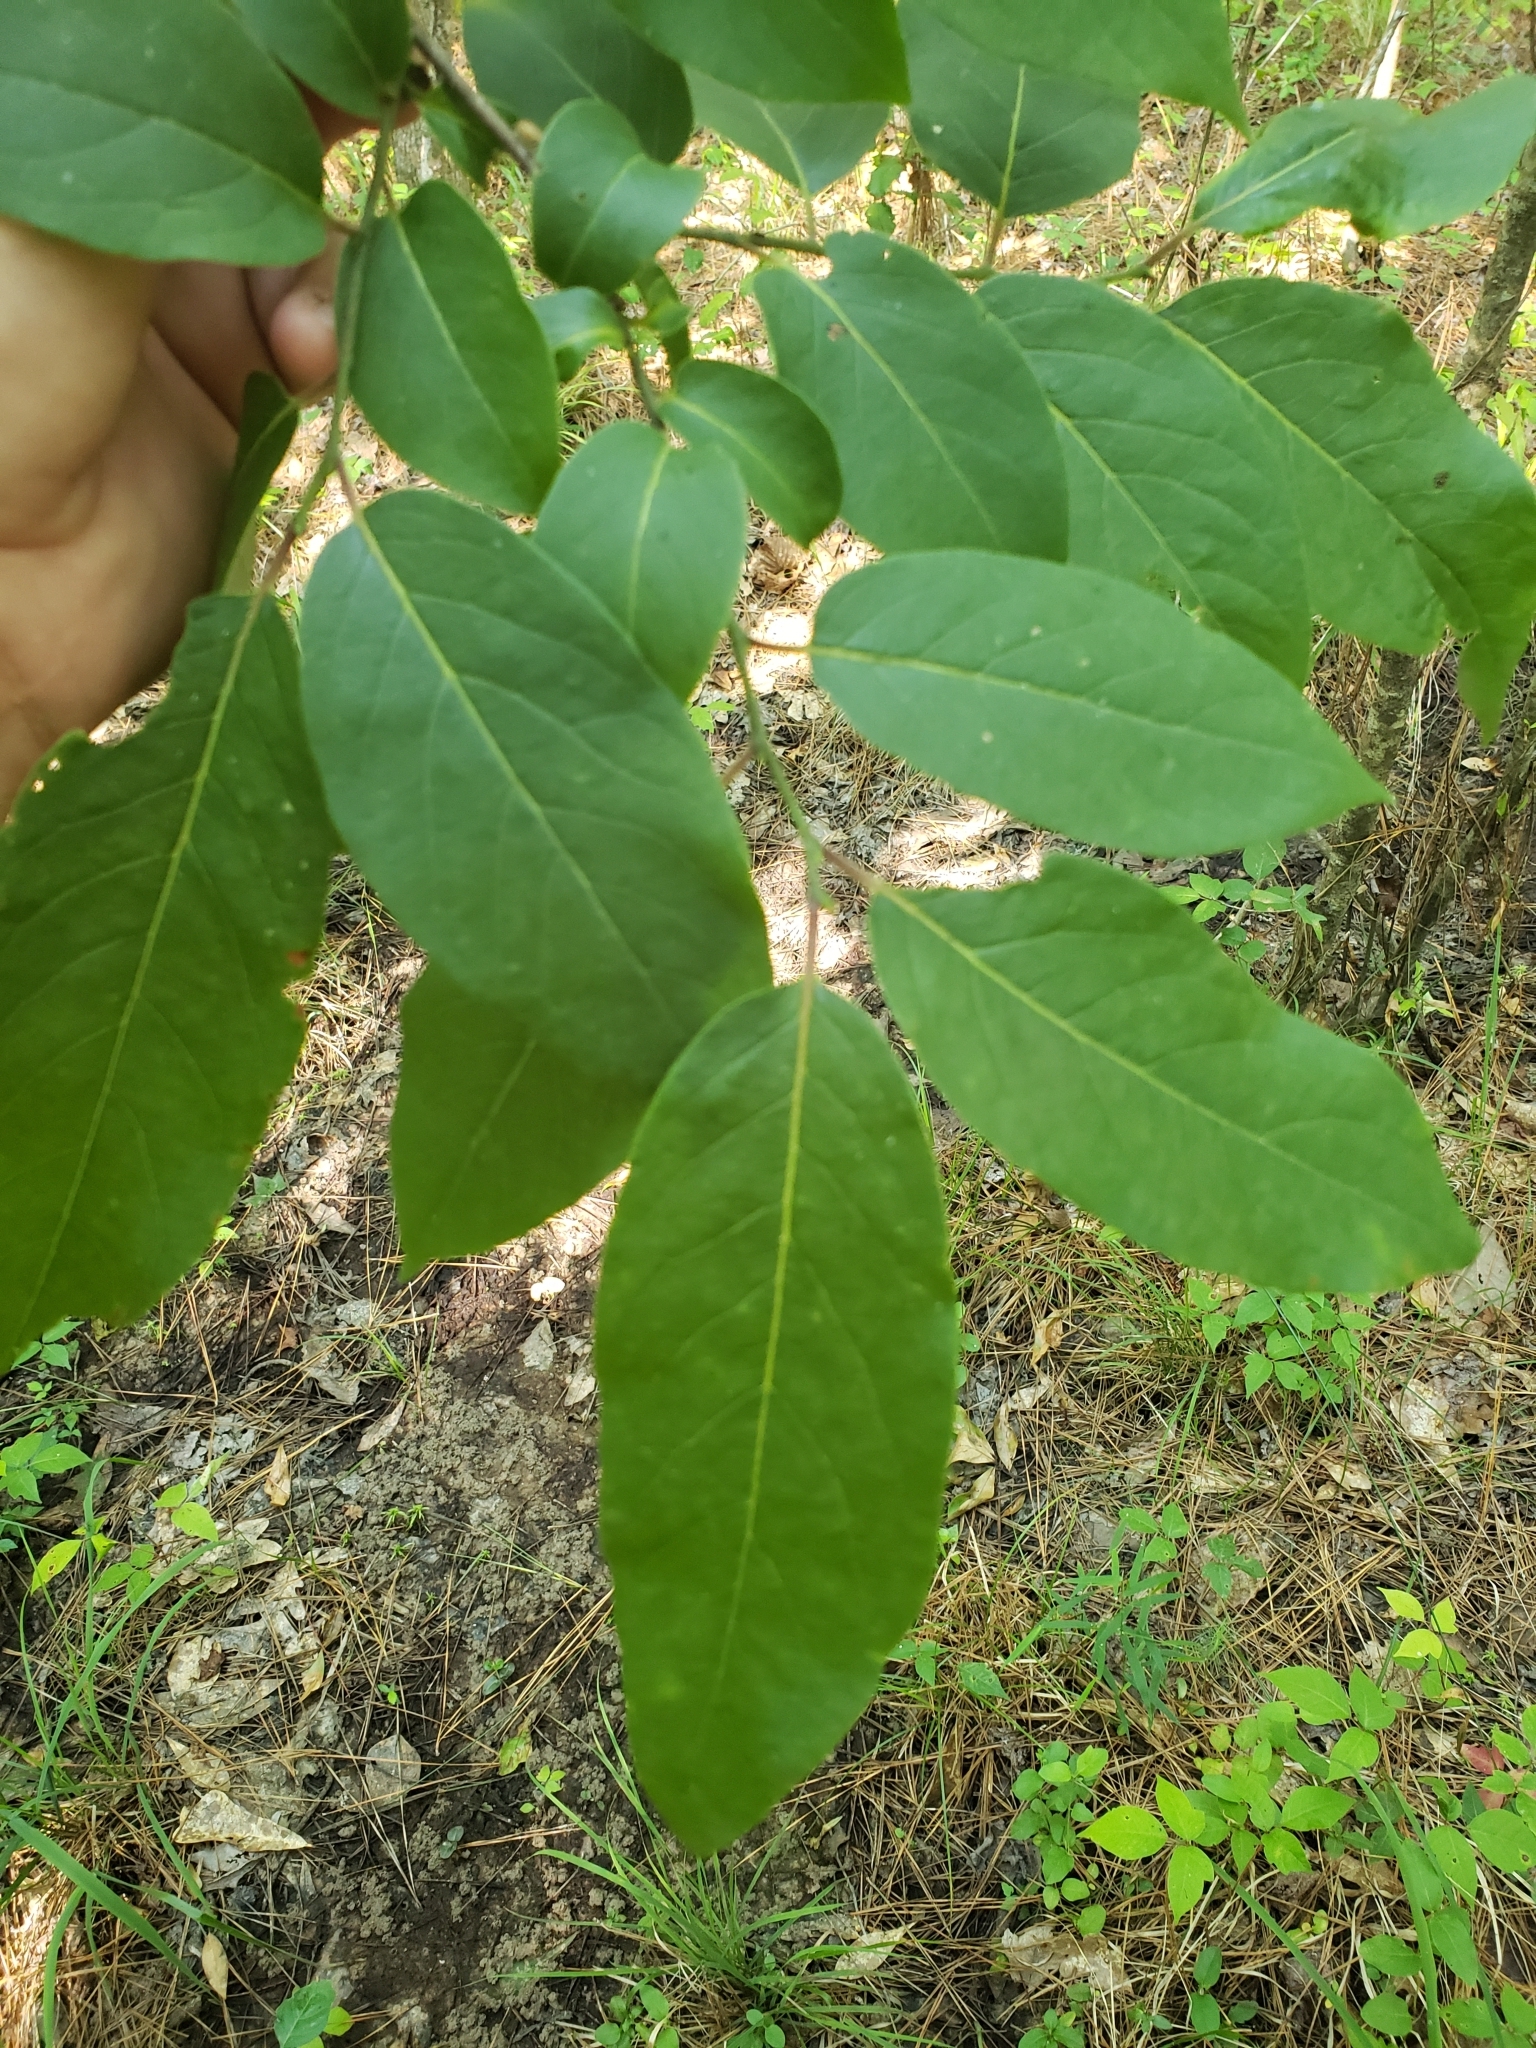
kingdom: Plantae
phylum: Tracheophyta
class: Magnoliopsida
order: Ericales
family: Ebenaceae
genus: Diospyros
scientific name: Diospyros virginiana
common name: Persimmon
